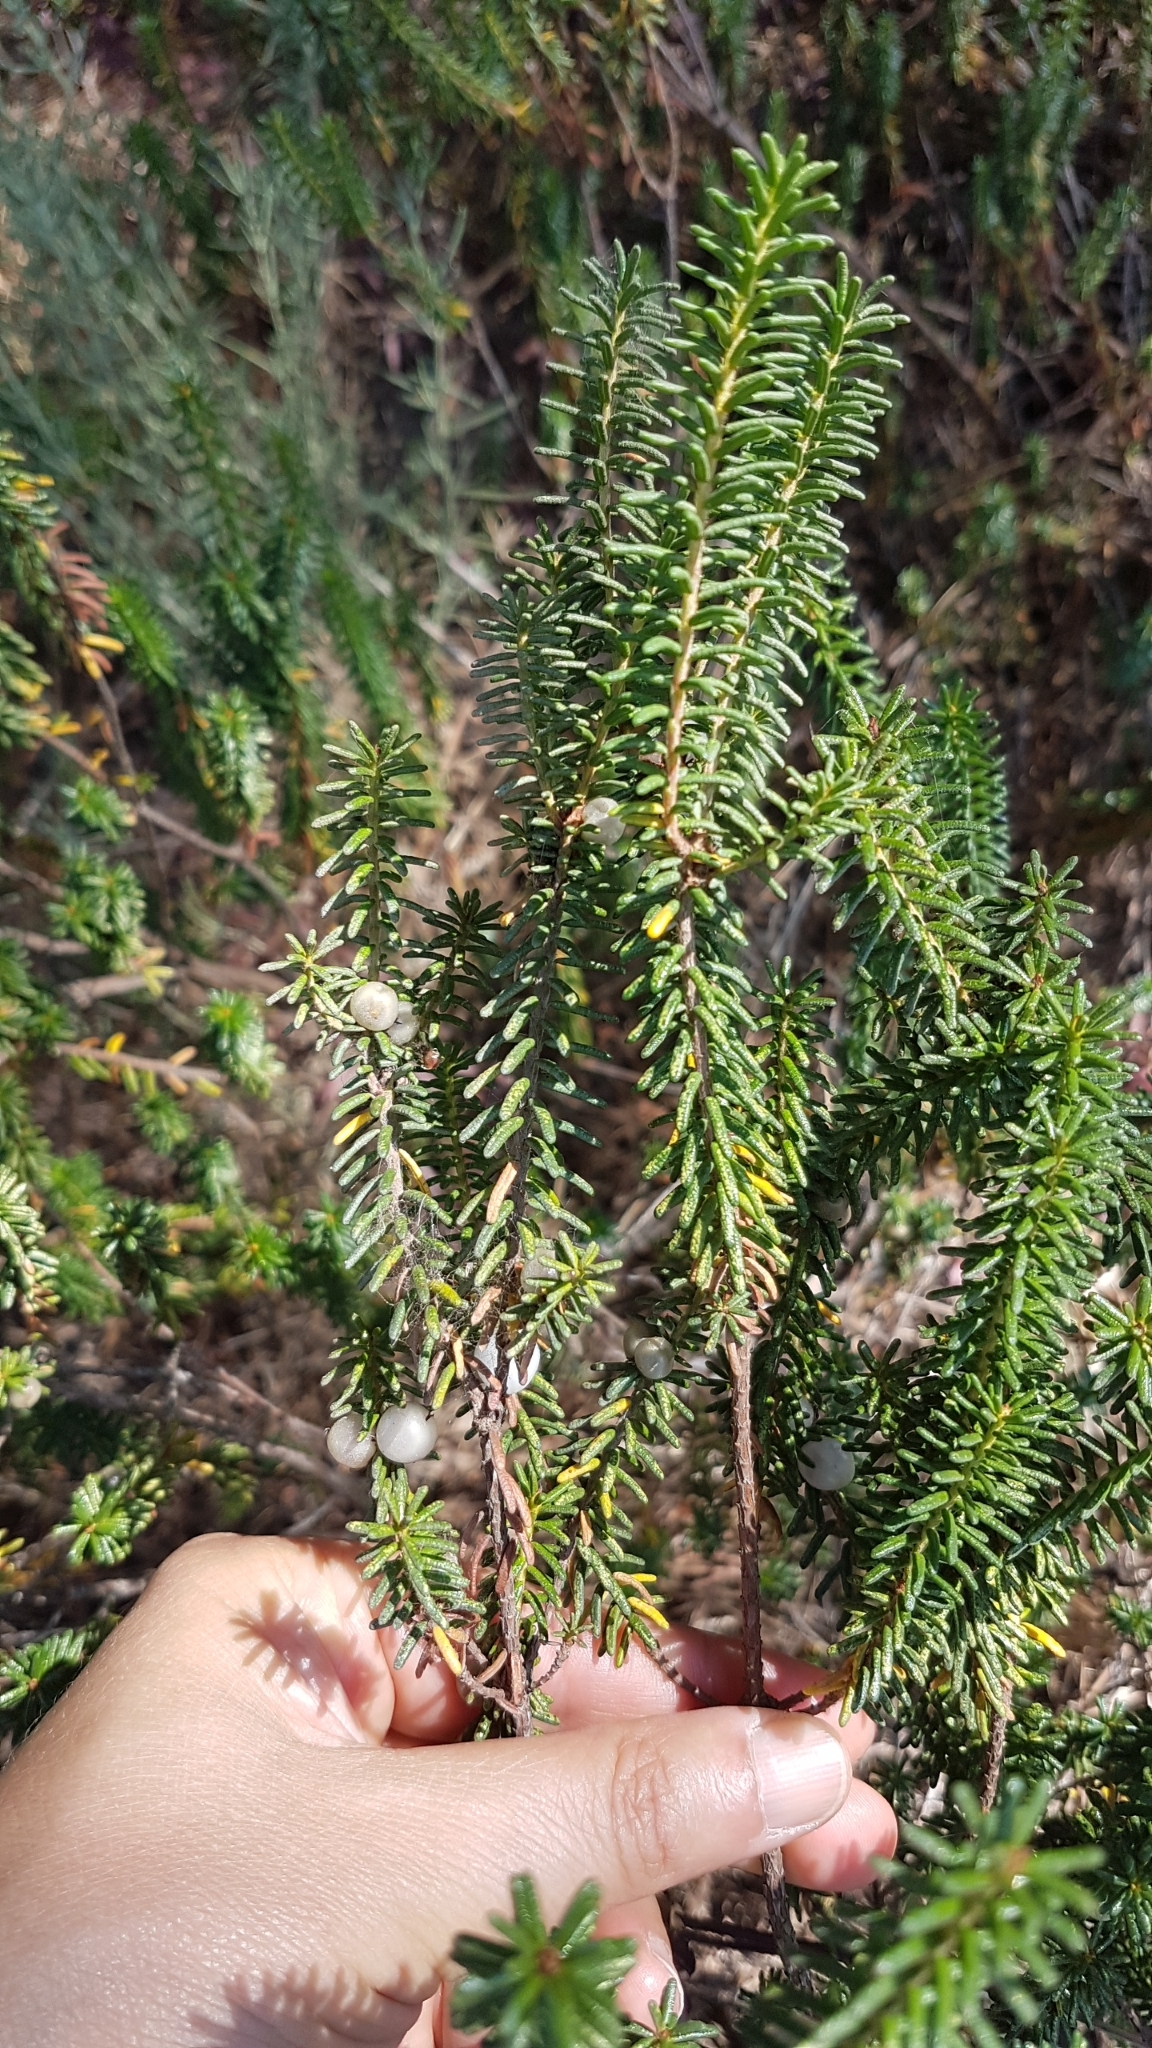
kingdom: Plantae
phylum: Tracheophyta
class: Magnoliopsida
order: Ericales
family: Ericaceae
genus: Corema
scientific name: Corema album
